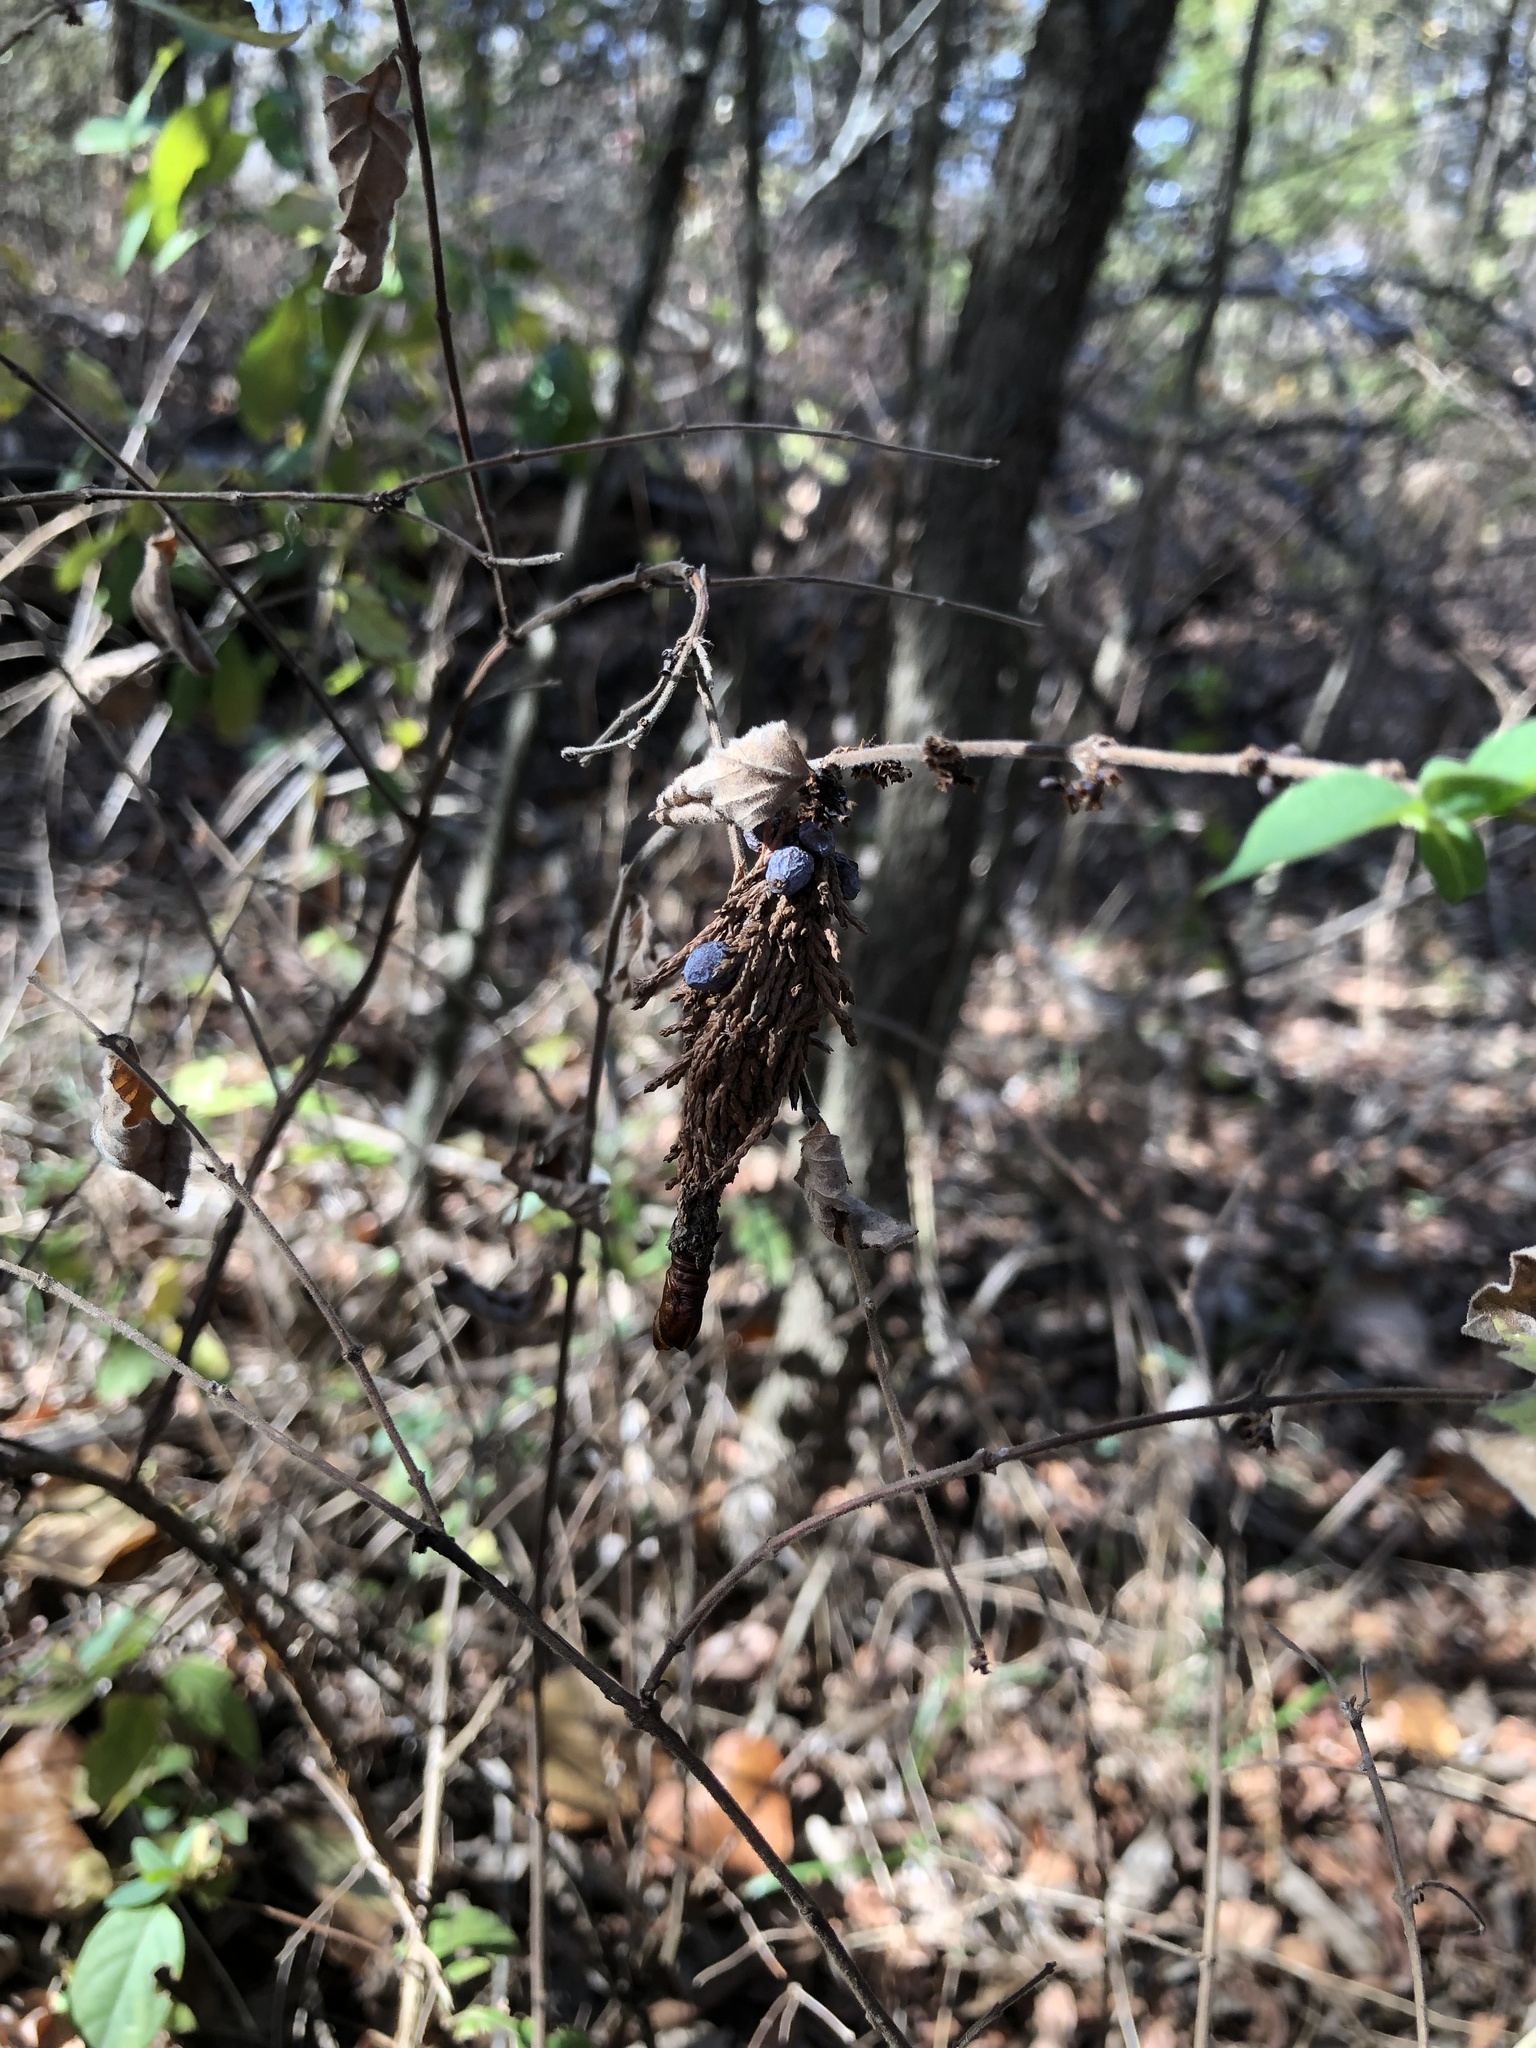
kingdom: Animalia
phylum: Arthropoda
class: Insecta
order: Lepidoptera
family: Psychidae
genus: Thyridopteryx
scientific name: Thyridopteryx ephemeraeformis
